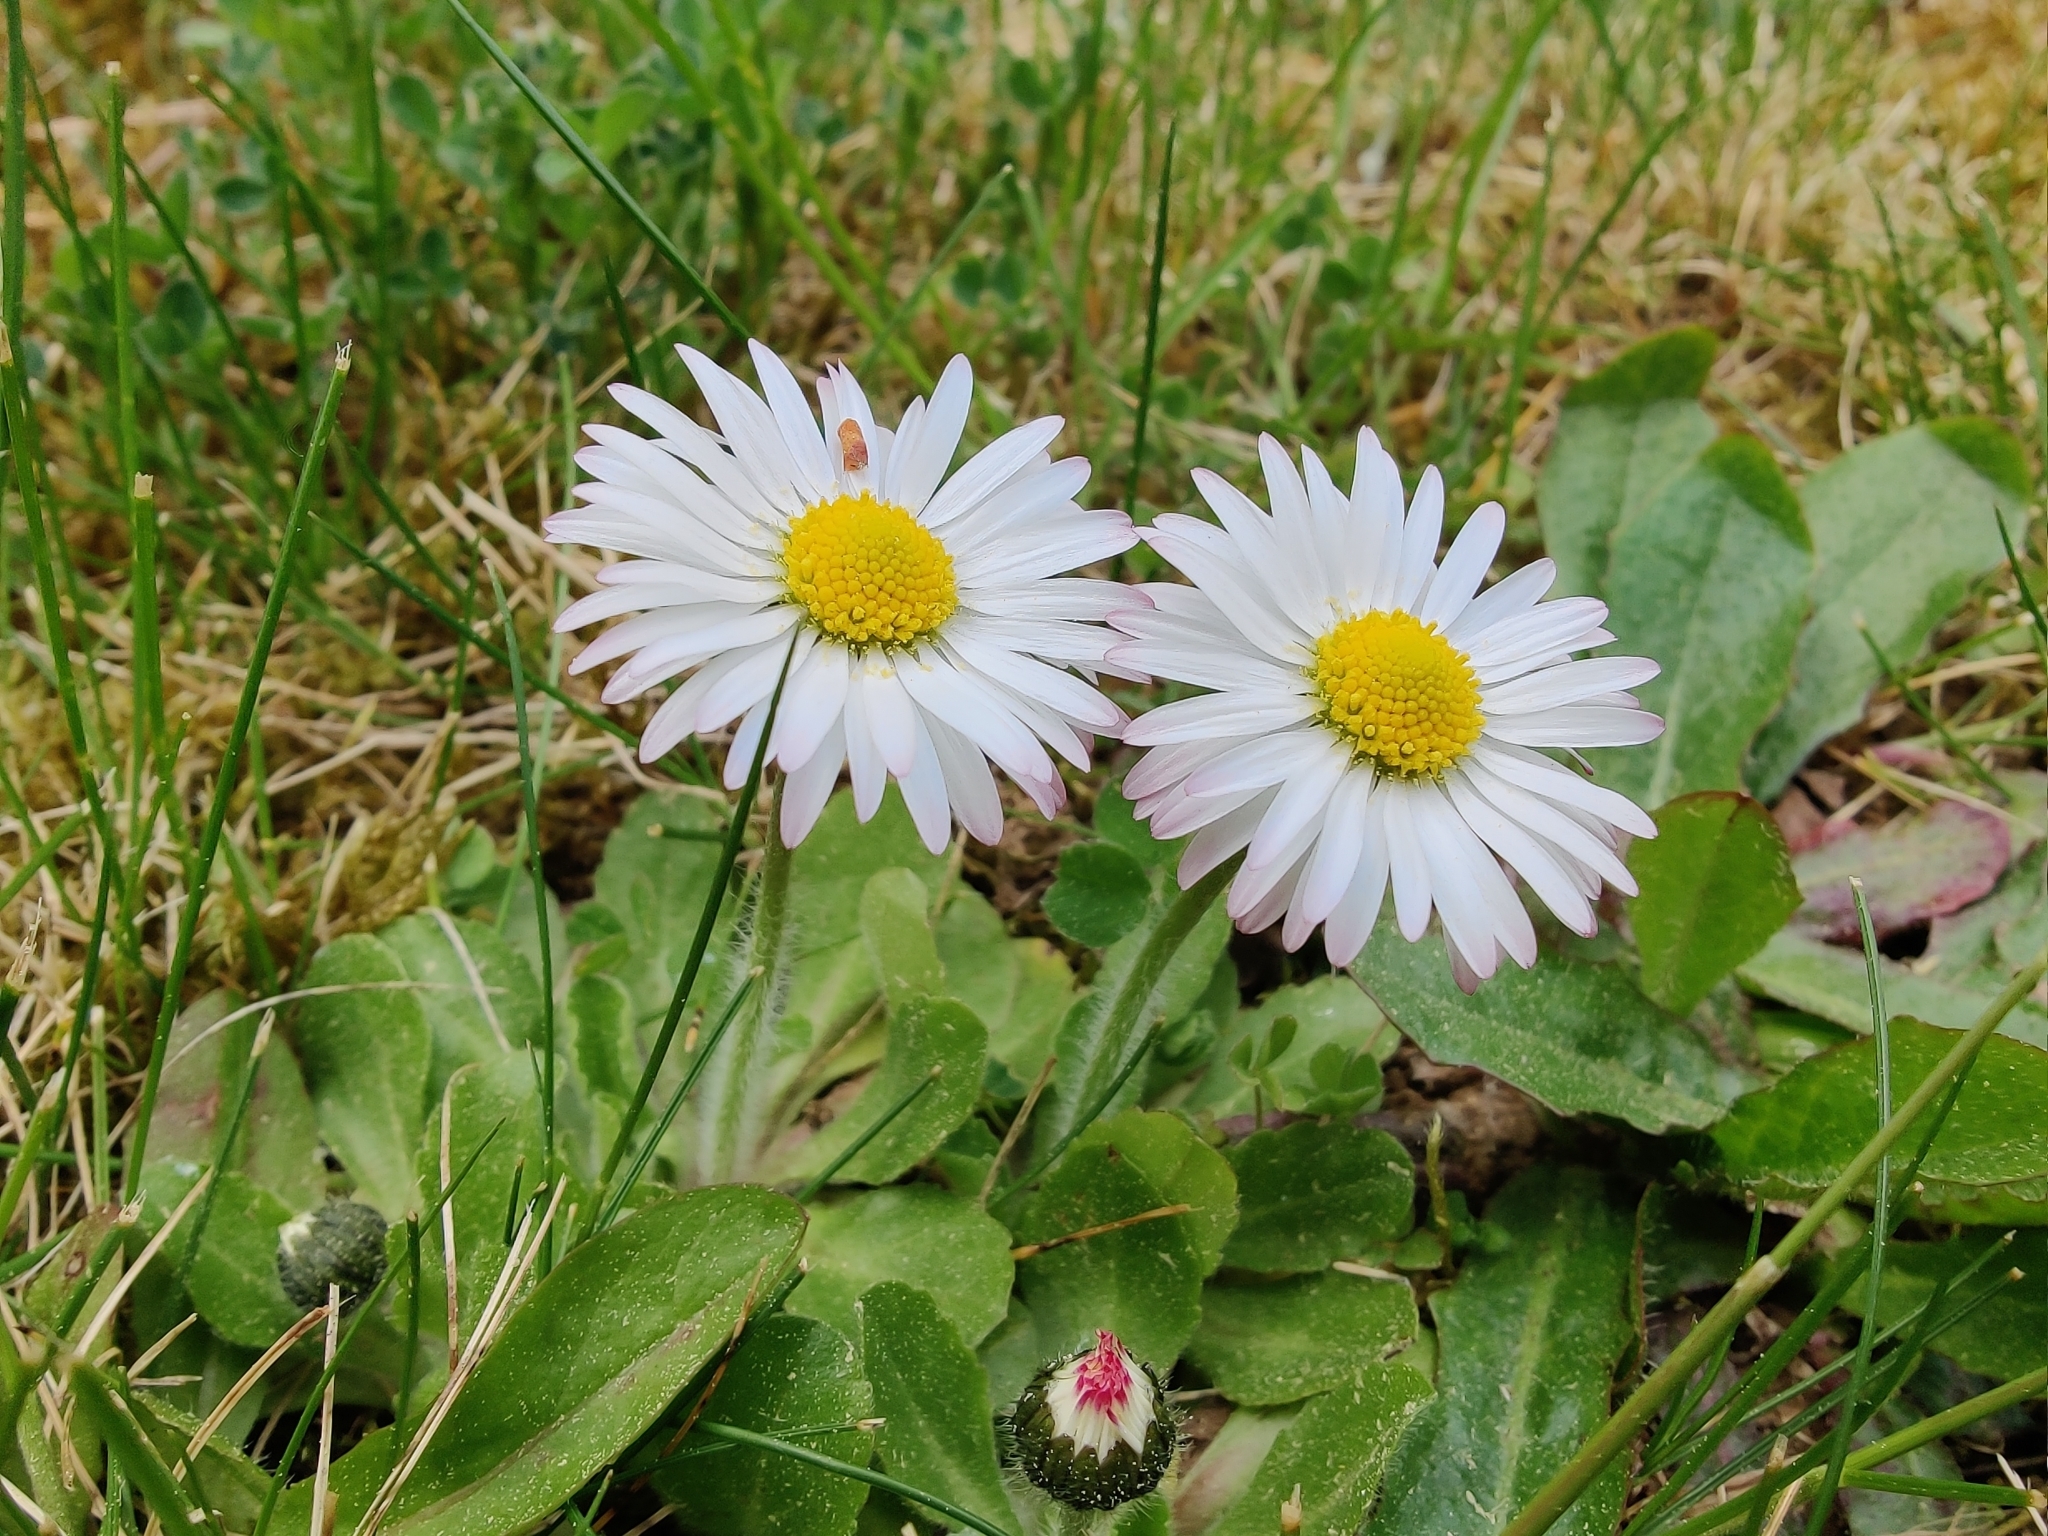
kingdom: Plantae
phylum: Tracheophyta
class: Magnoliopsida
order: Asterales
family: Asteraceae
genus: Bellis
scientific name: Bellis perennis
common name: Lawndaisy
